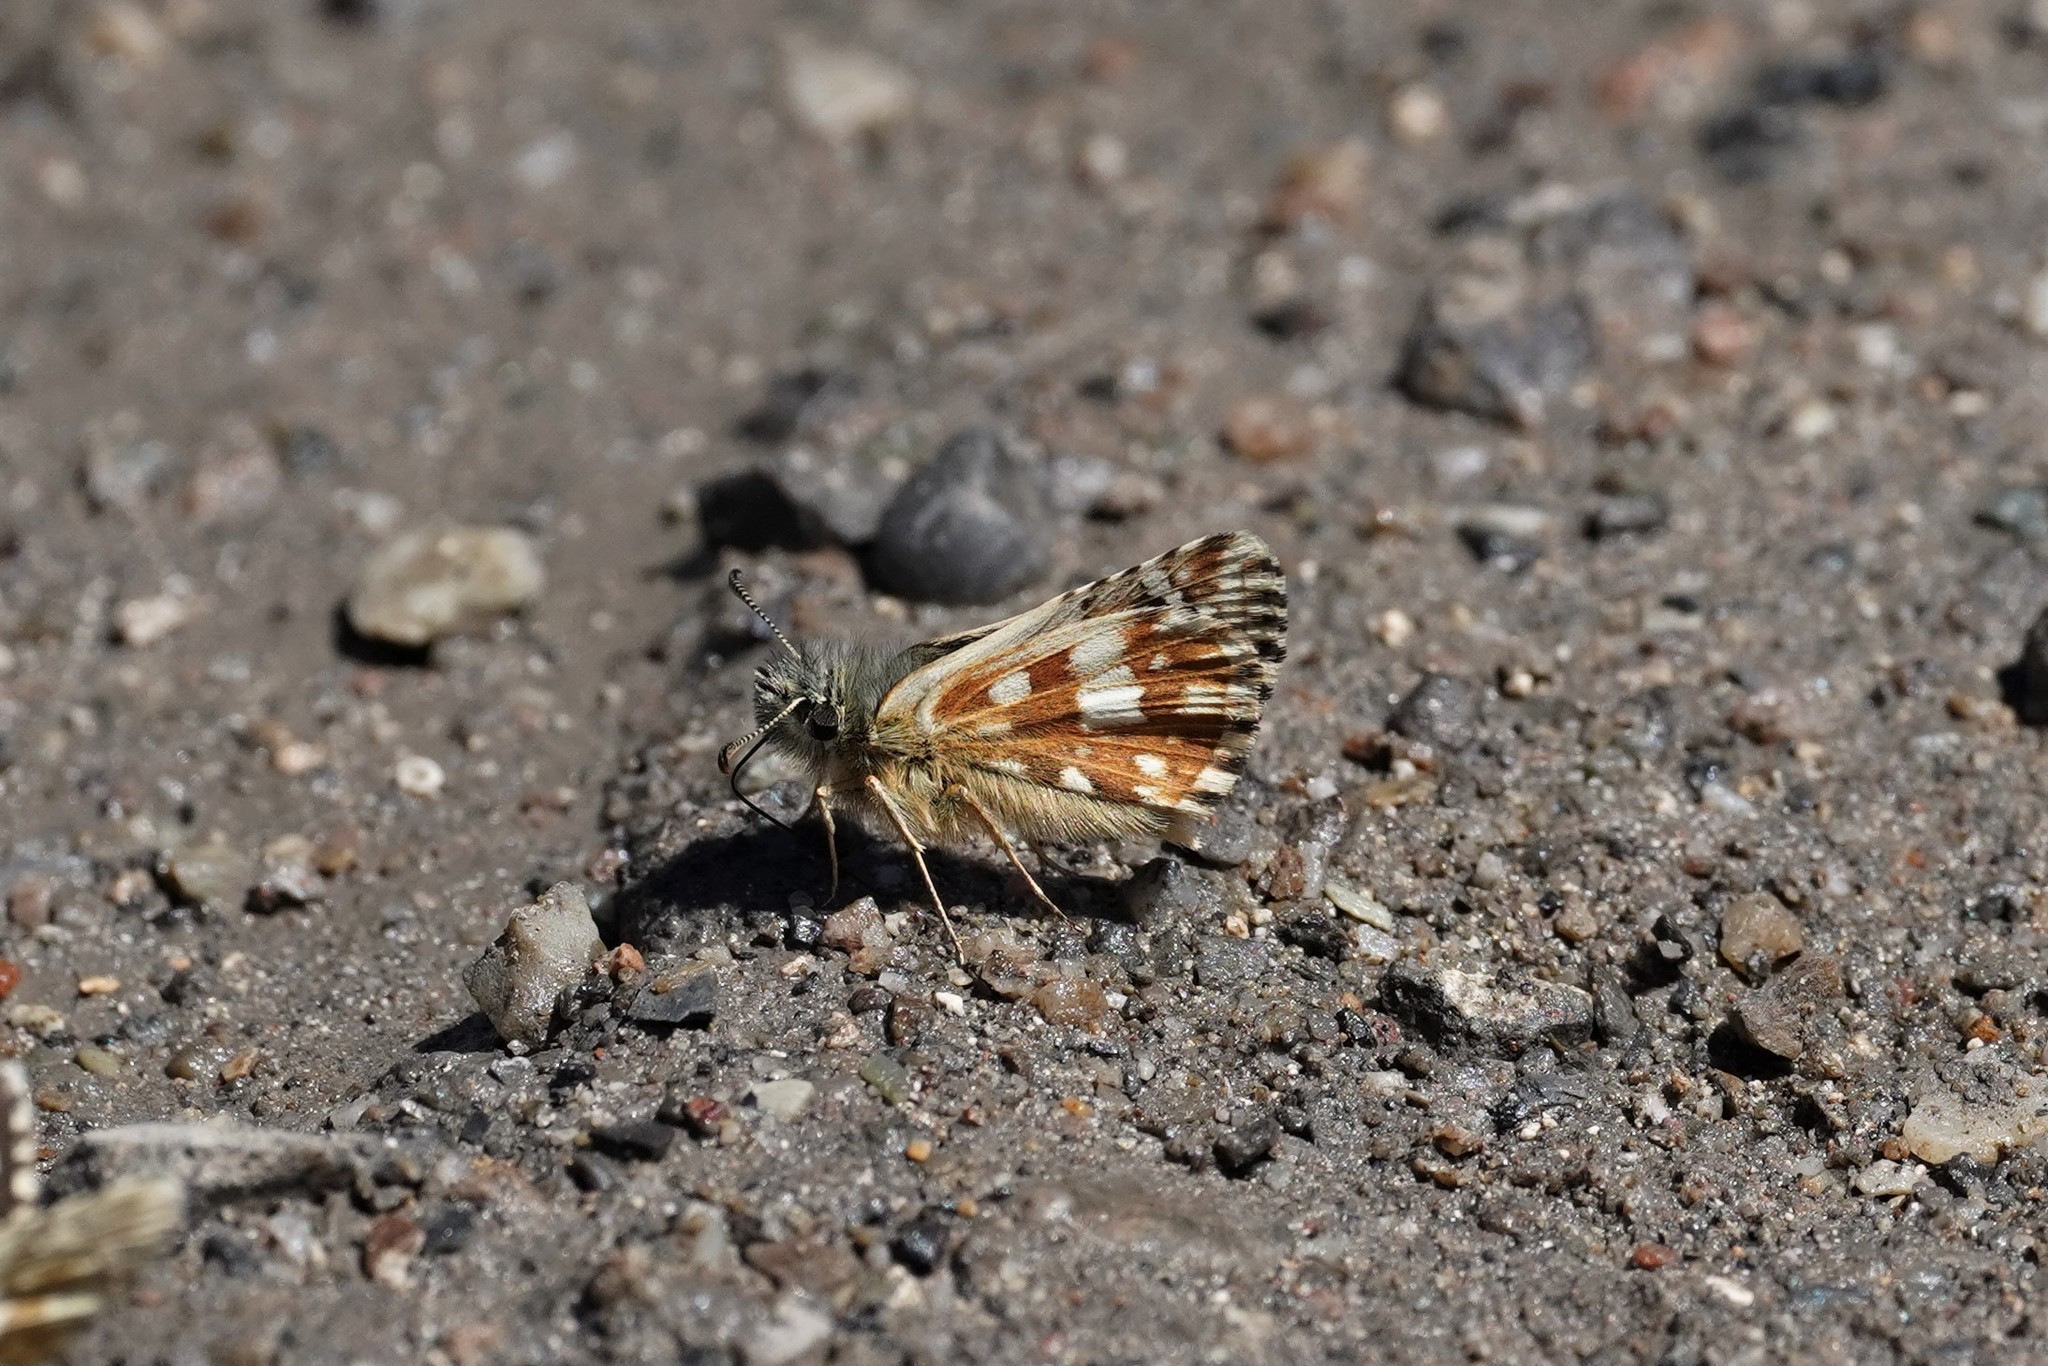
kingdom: Animalia
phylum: Arthropoda
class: Insecta
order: Lepidoptera
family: Hesperiidae
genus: Pyrgus
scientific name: Pyrgus carlinae
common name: Carline skipper
